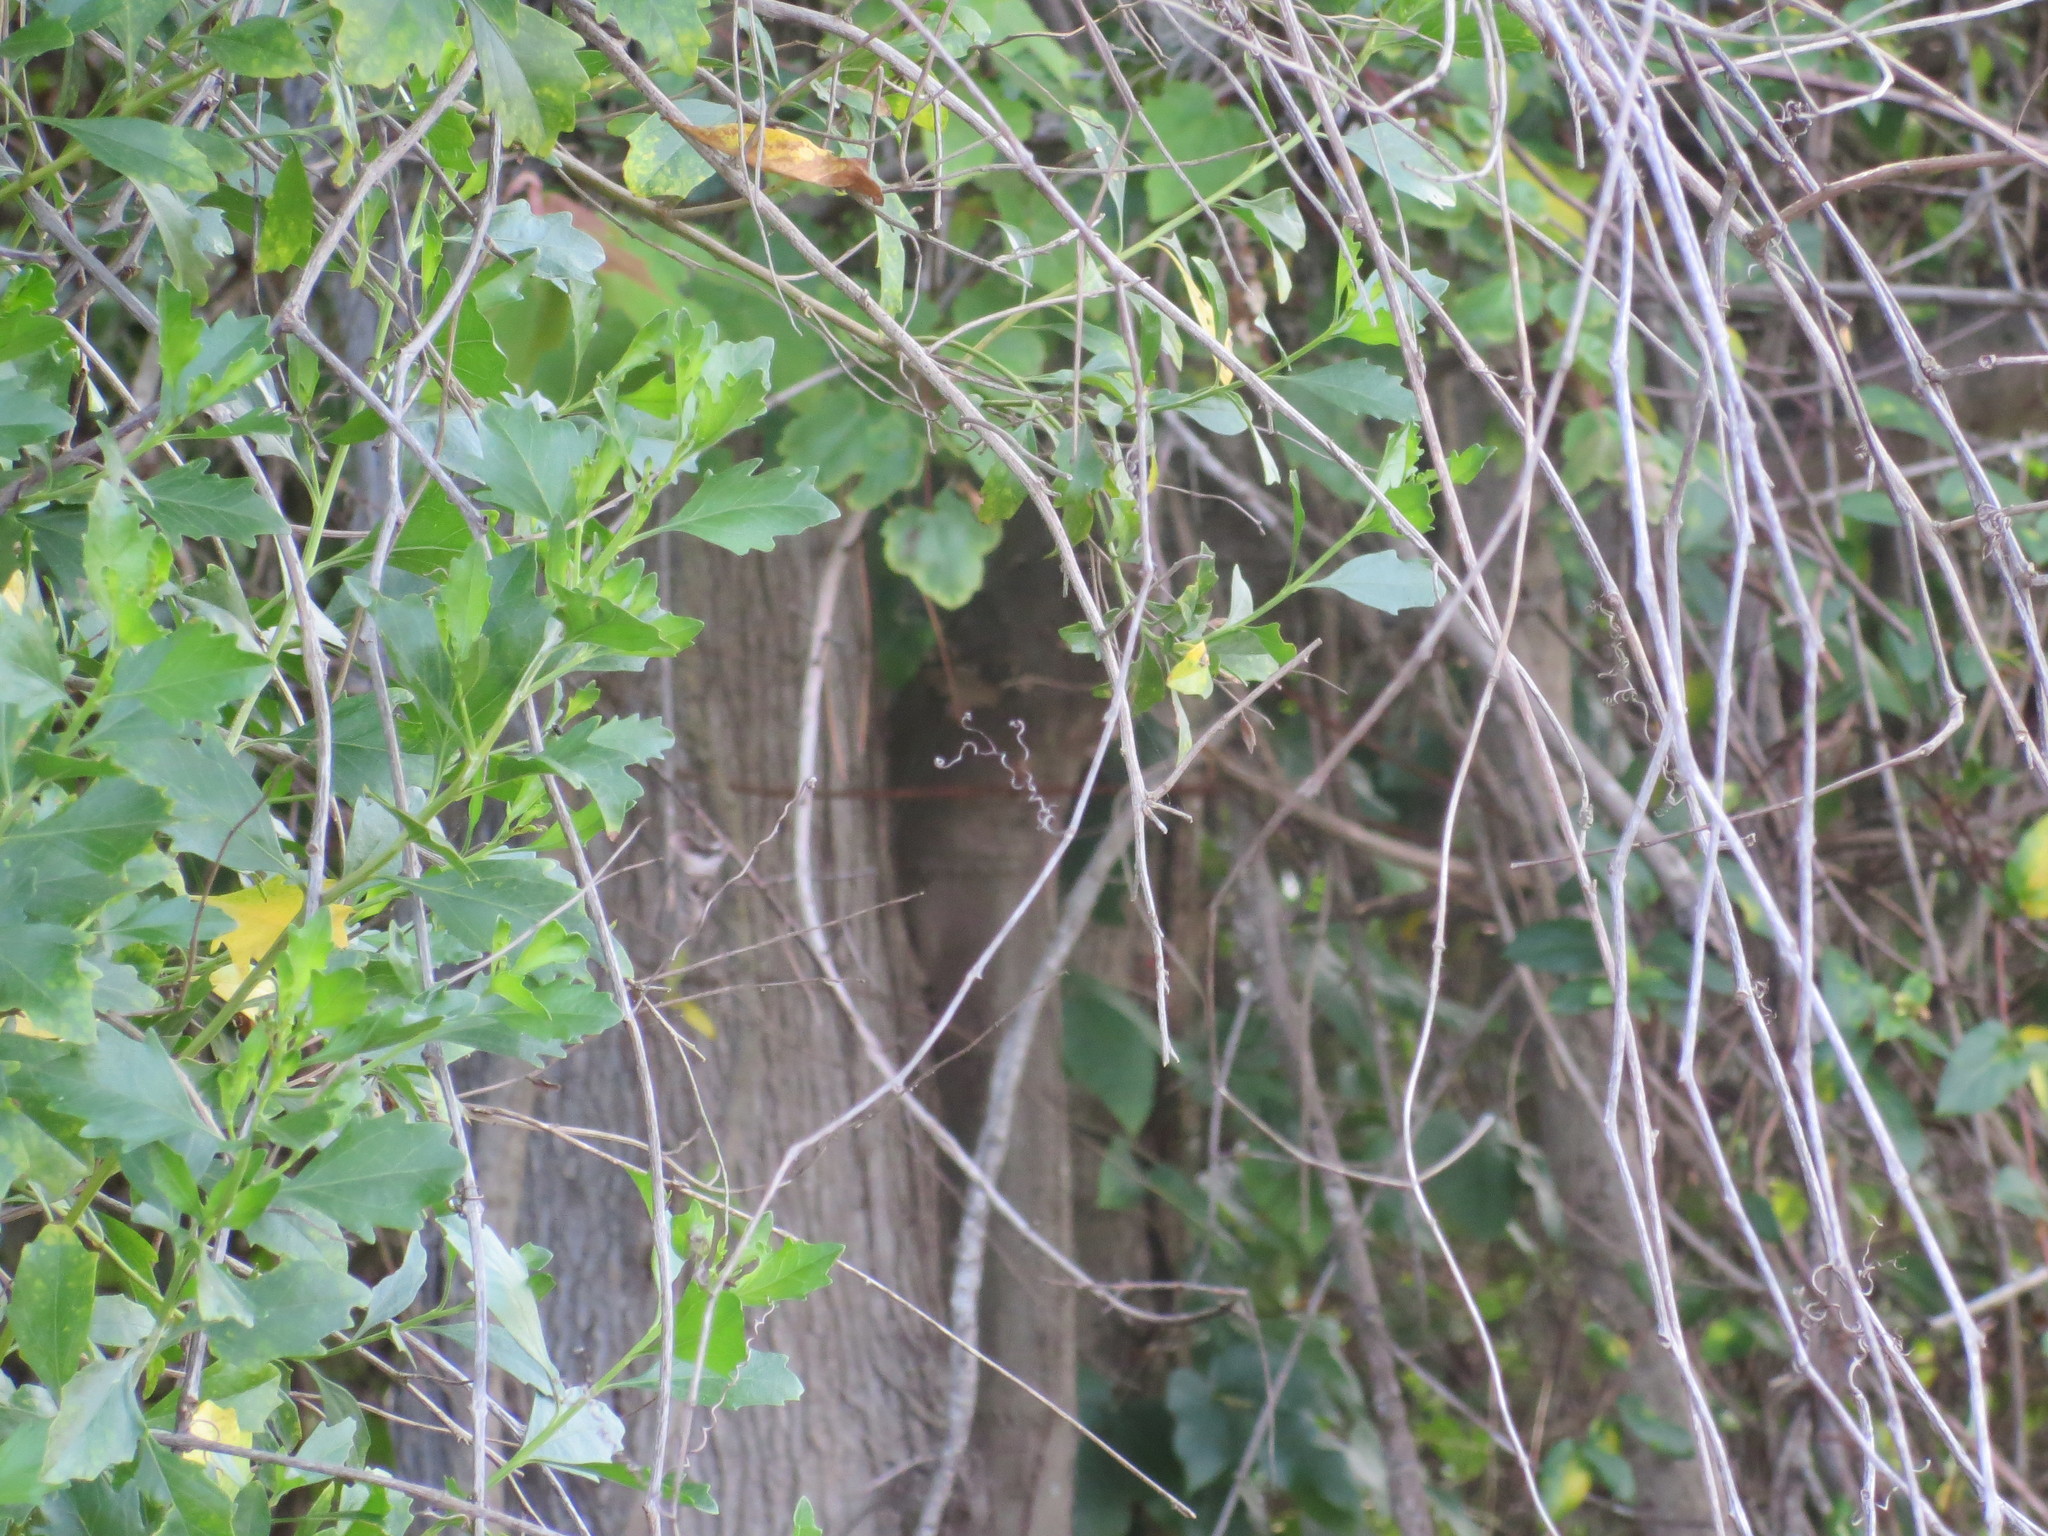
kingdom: Plantae
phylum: Tracheophyta
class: Magnoliopsida
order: Asterales
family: Asteraceae
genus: Baccharis
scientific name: Baccharis halimifolia
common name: Eastern baccharis
